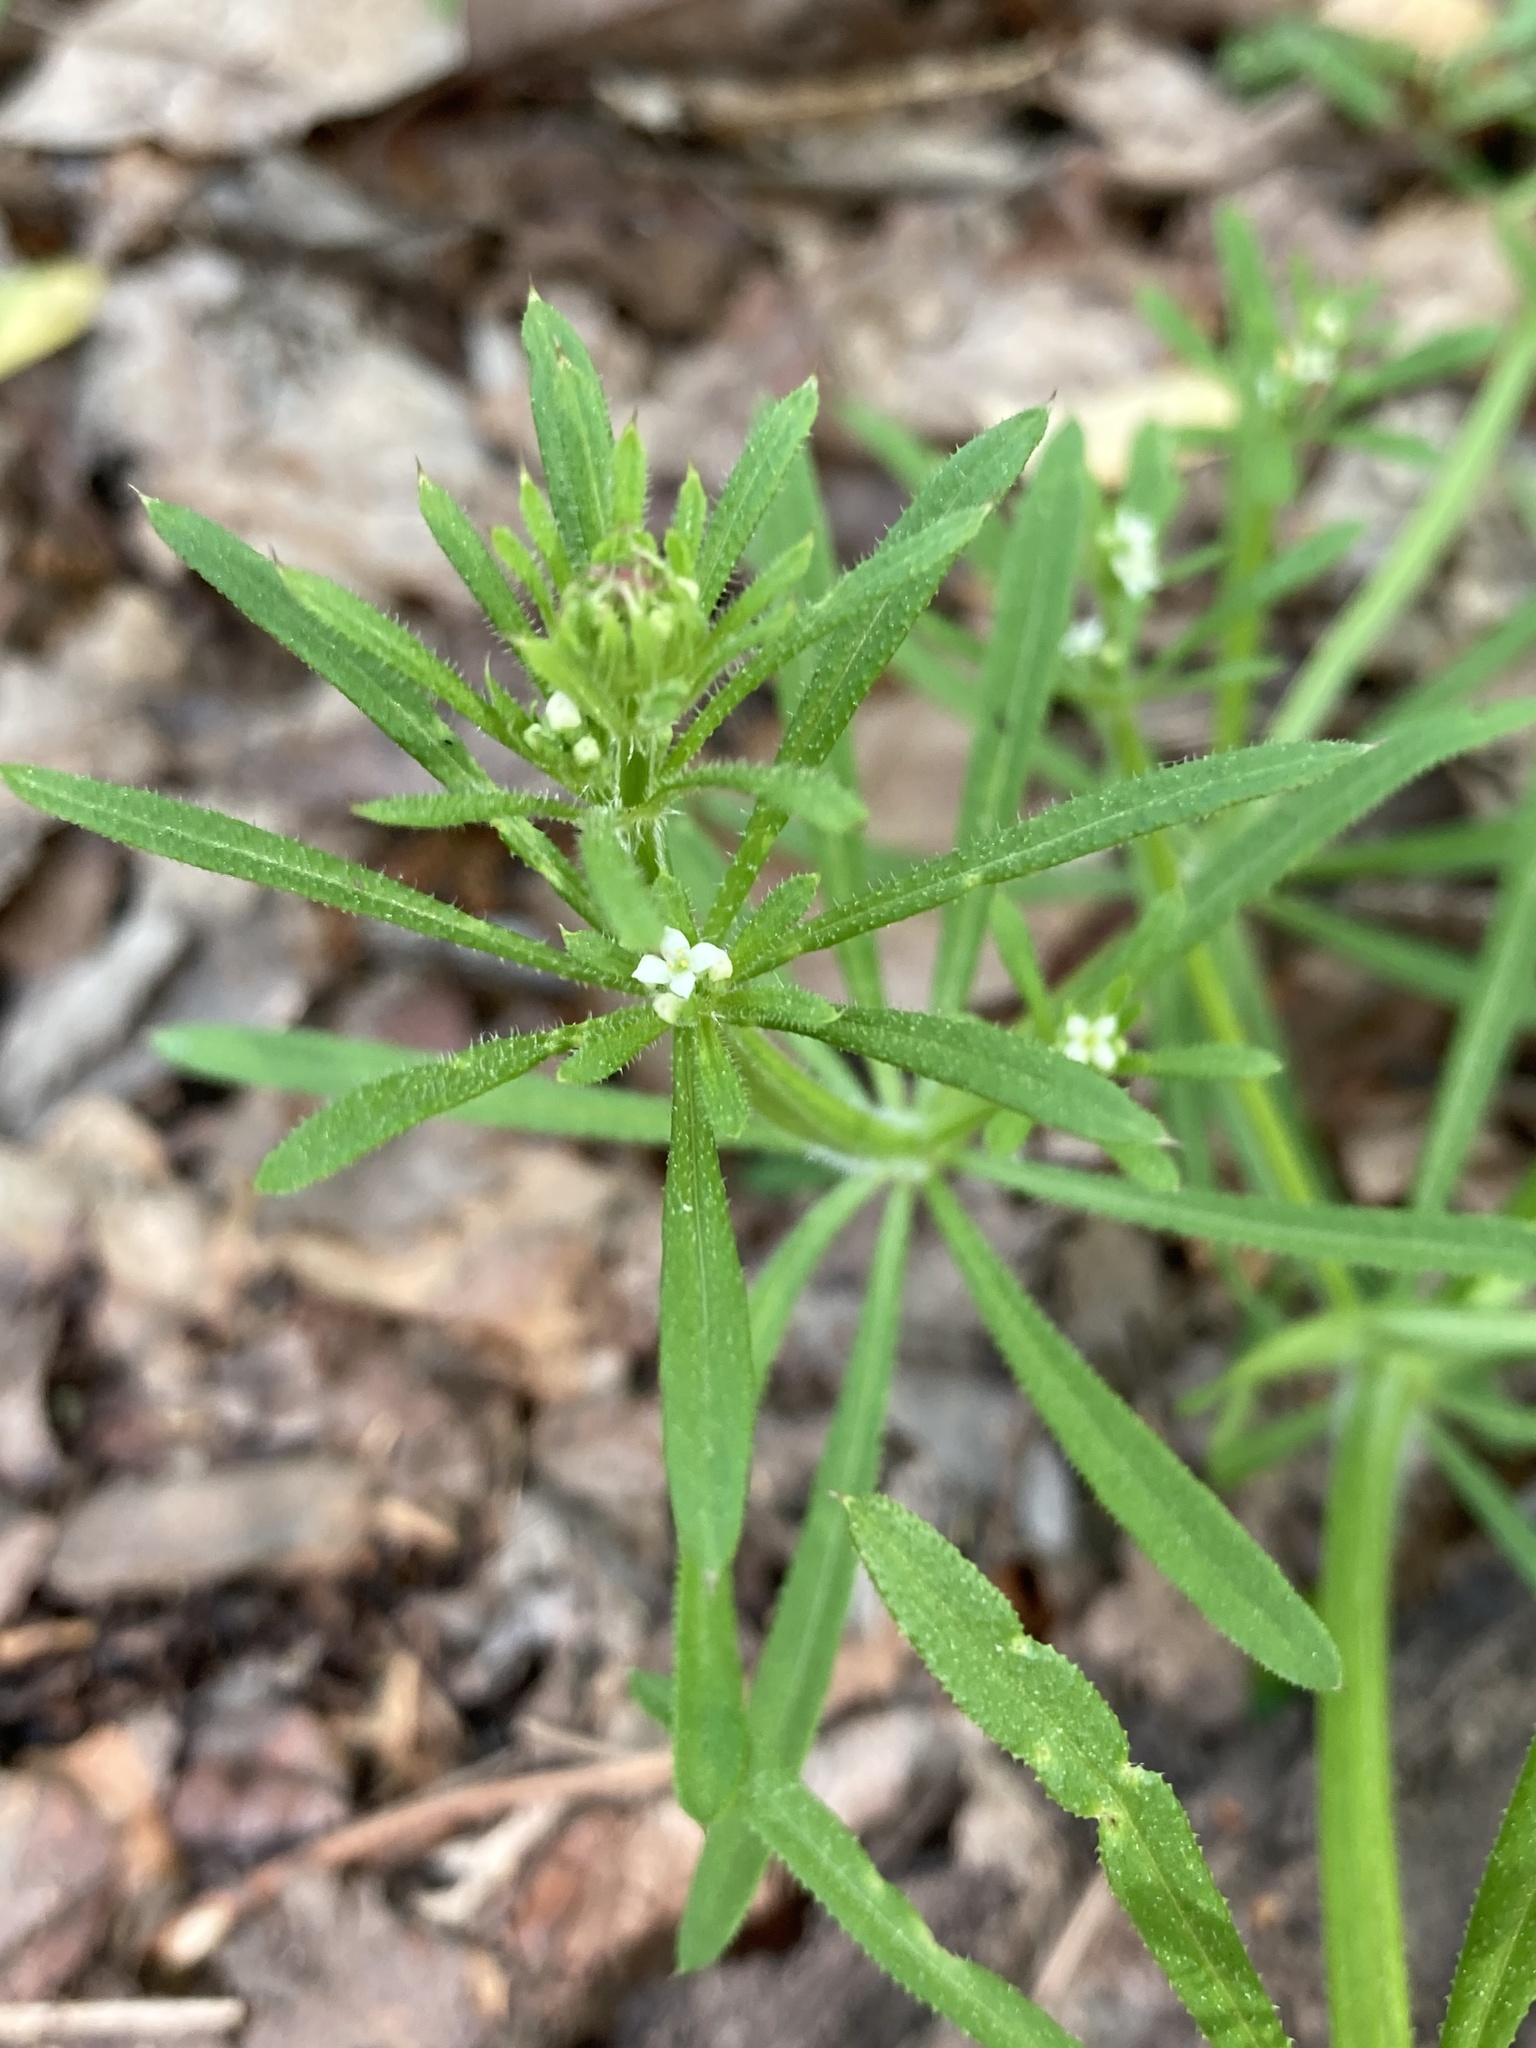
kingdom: Plantae
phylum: Tracheophyta
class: Magnoliopsida
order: Gentianales
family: Rubiaceae
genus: Galium
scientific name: Galium aparine
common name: Cleavers
